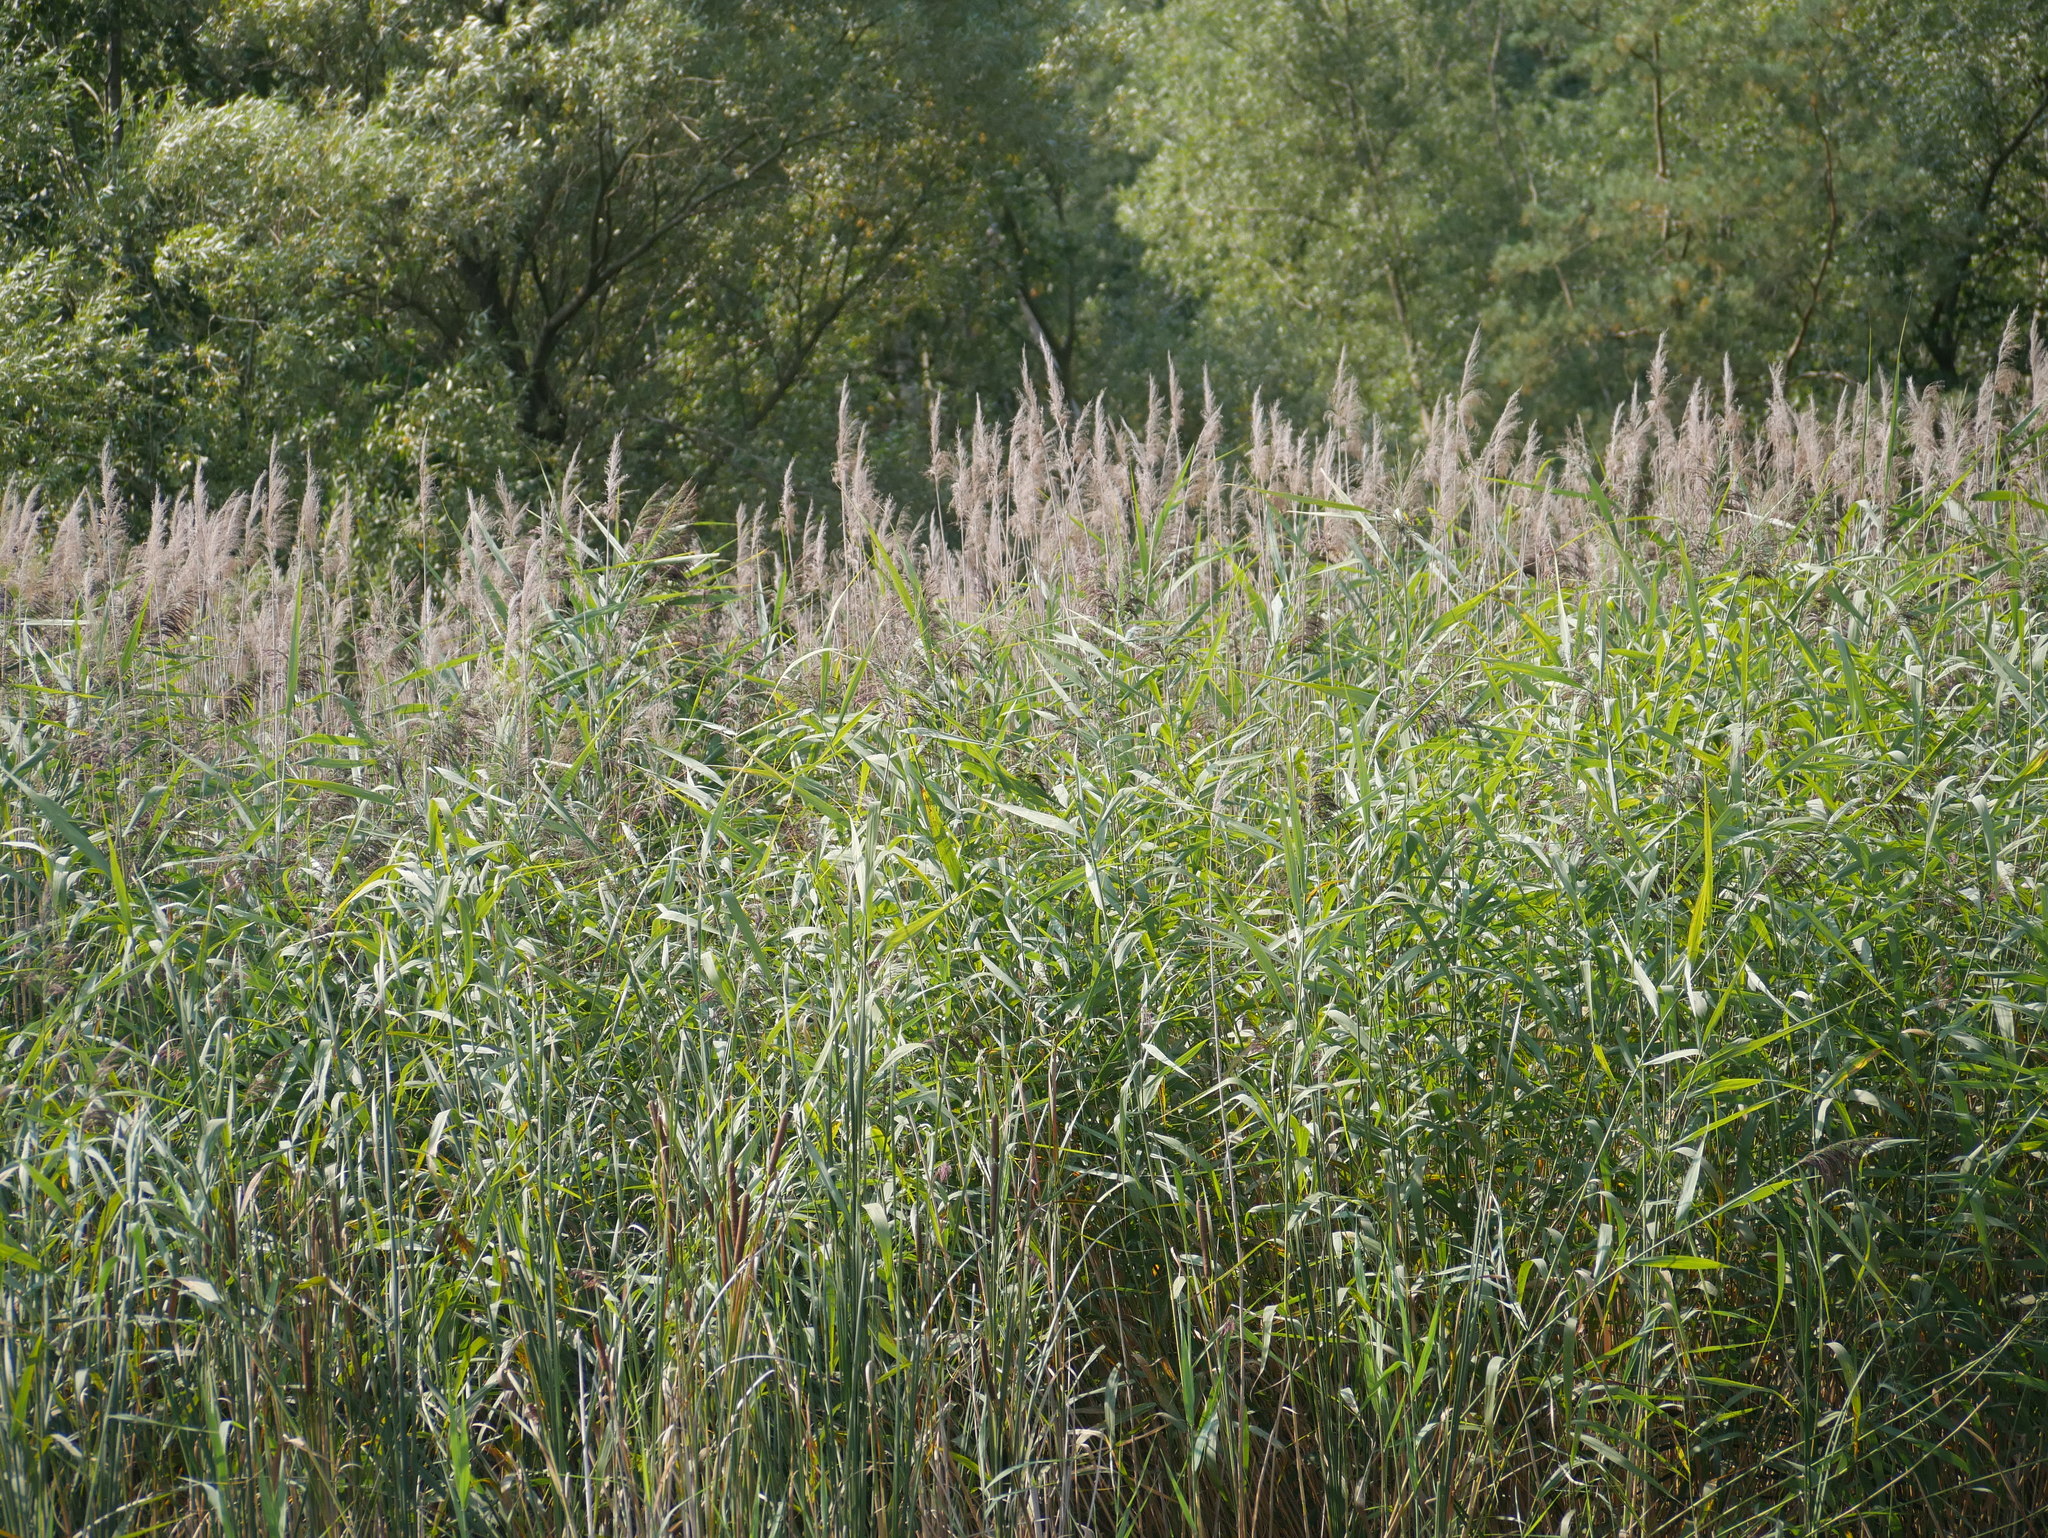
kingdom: Plantae
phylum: Tracheophyta
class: Liliopsida
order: Poales
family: Poaceae
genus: Phragmites
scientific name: Phragmites australis
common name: Common reed
